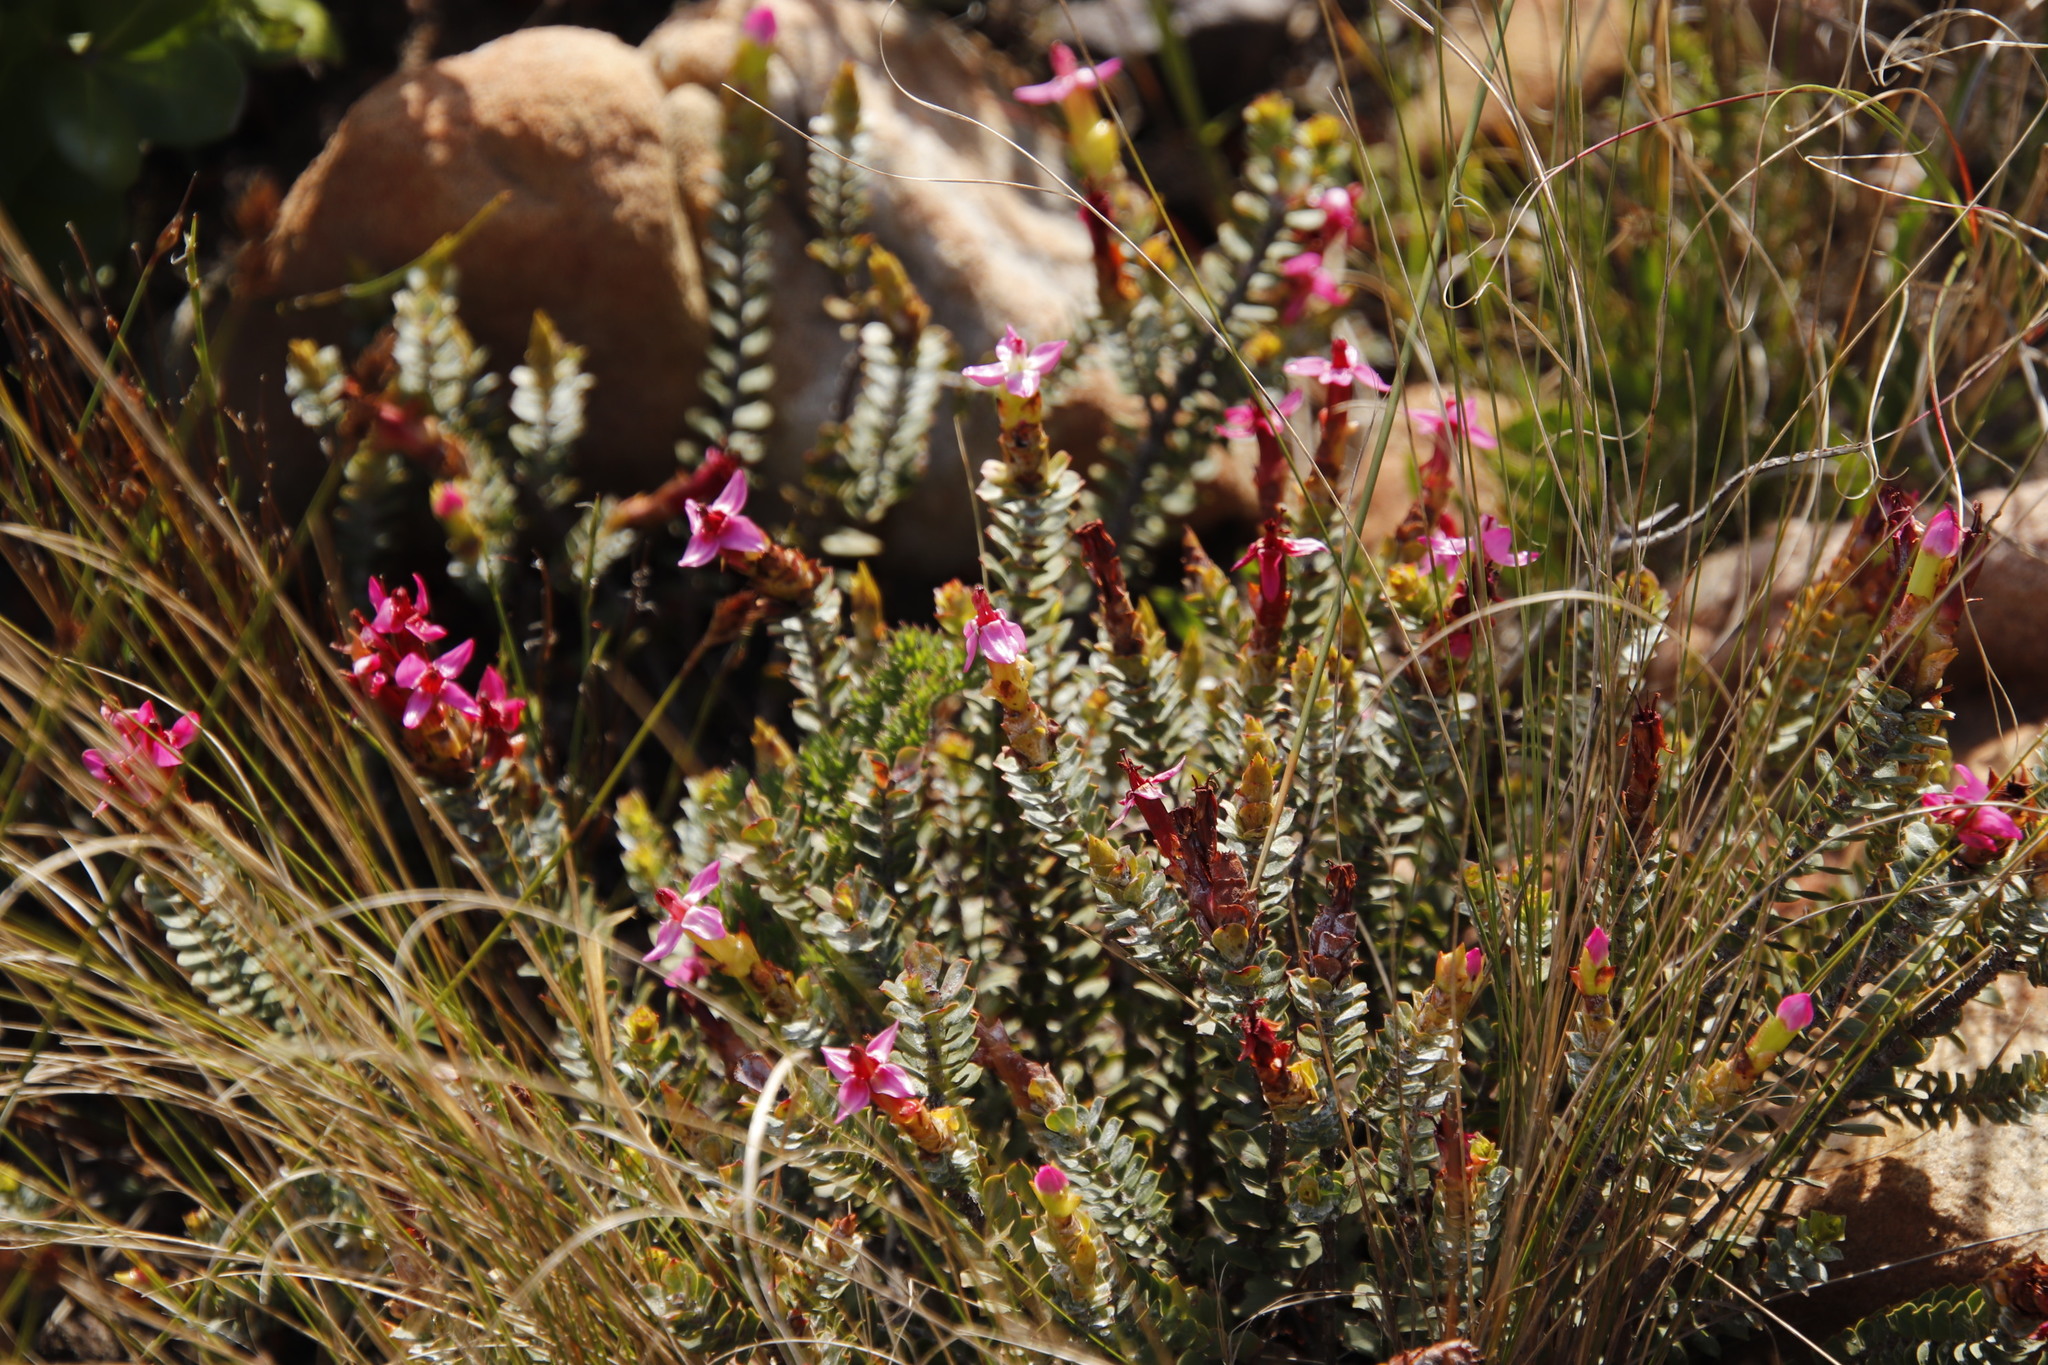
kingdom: Plantae
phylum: Tracheophyta
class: Magnoliopsida
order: Myrtales
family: Penaeaceae
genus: Saltera
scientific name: Saltera sarcocolla
